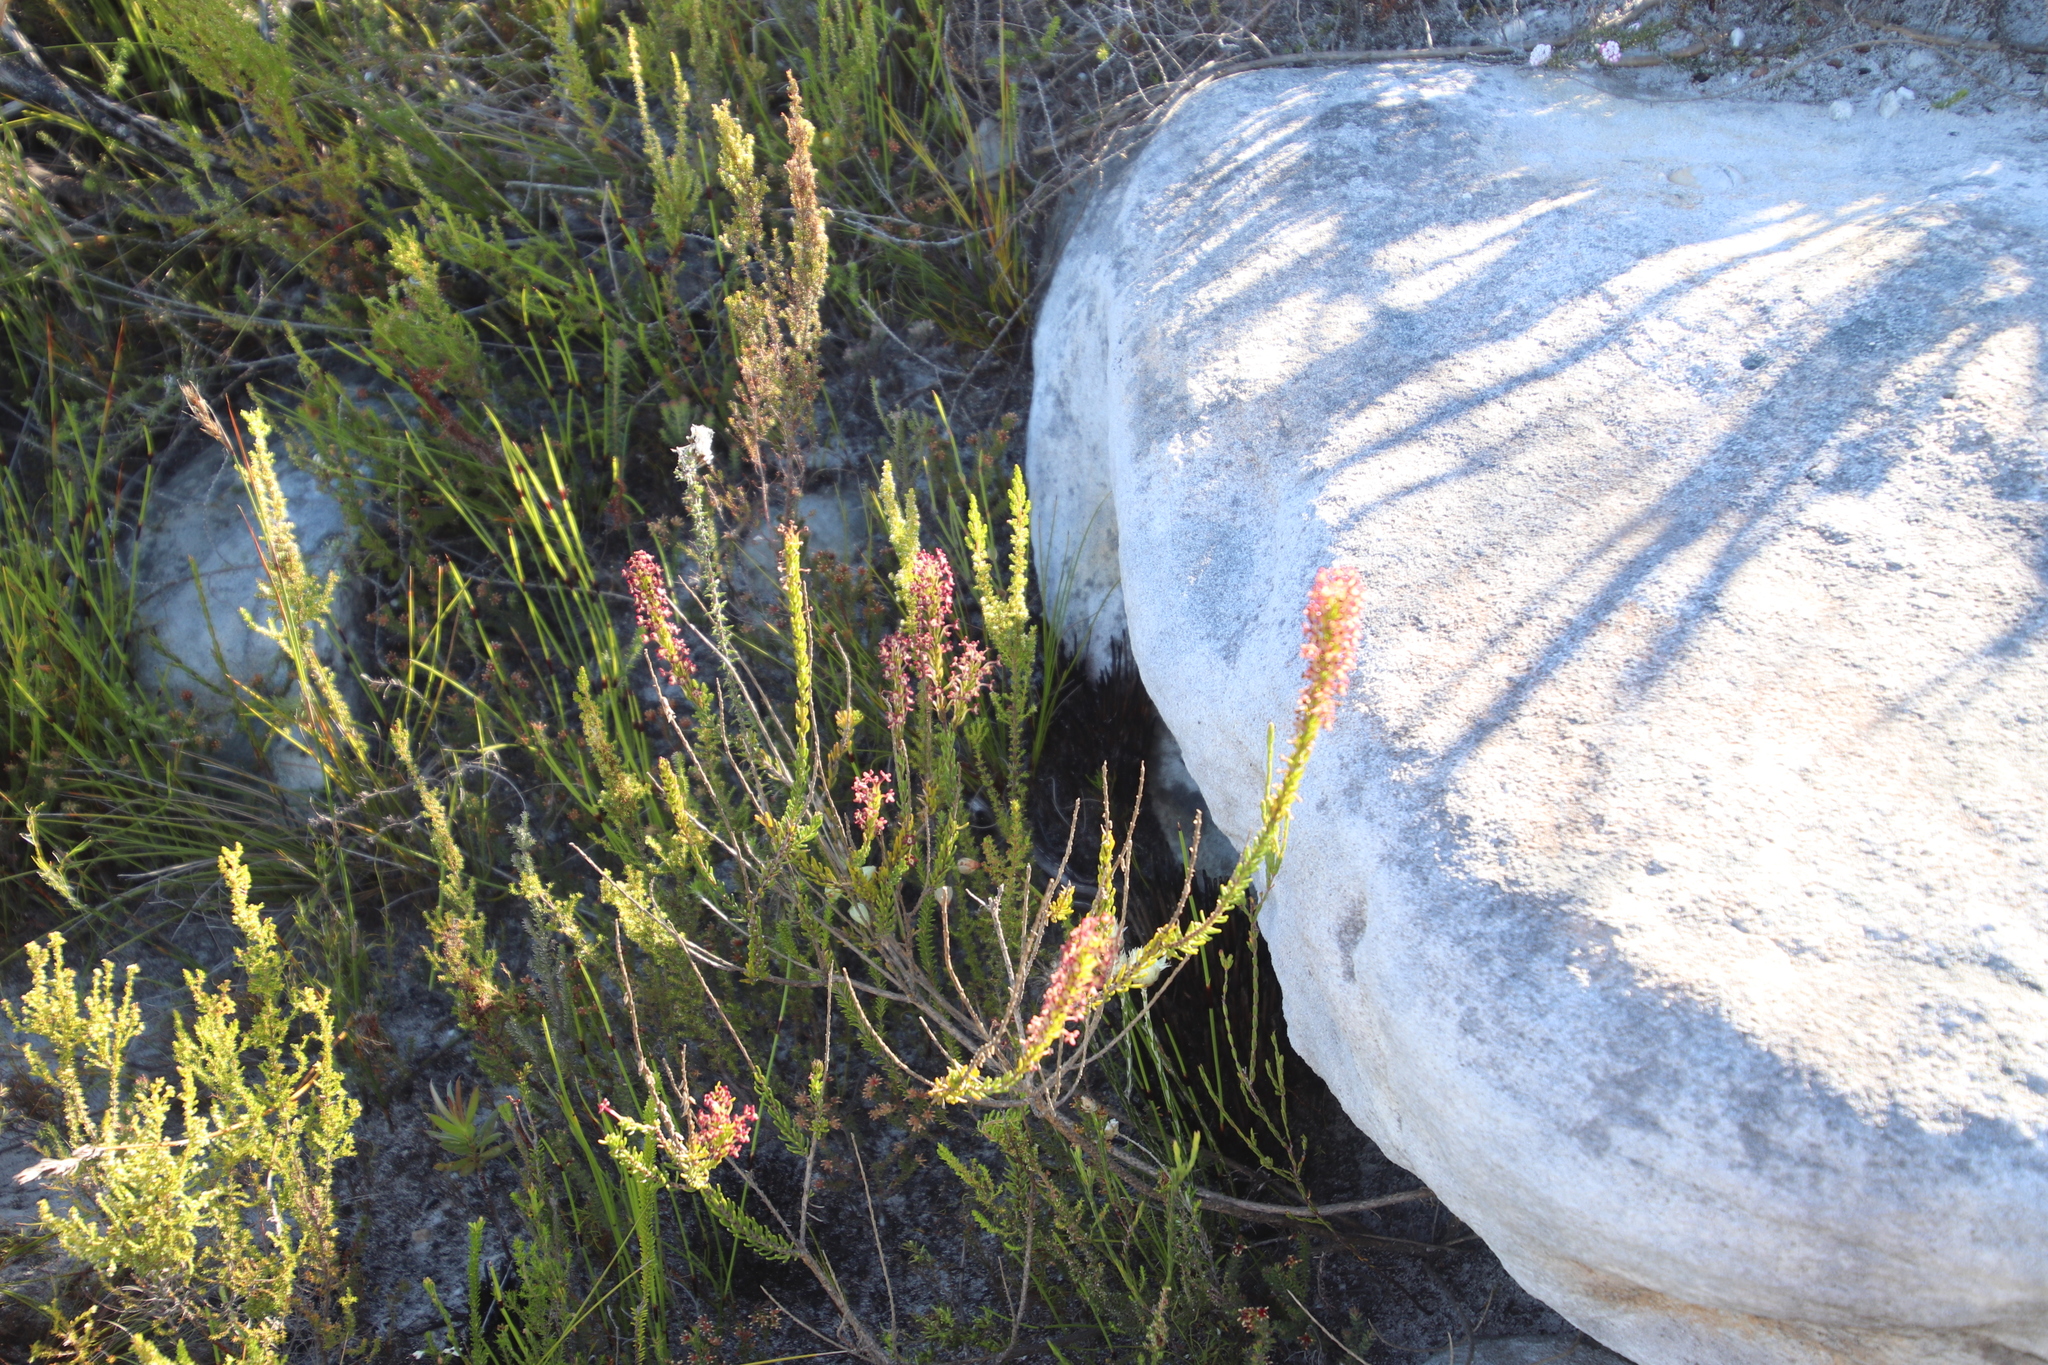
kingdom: Plantae
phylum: Tracheophyta
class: Magnoliopsida
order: Lamiales
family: Scrophulariaceae
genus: Microdon
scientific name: Microdon dubius
